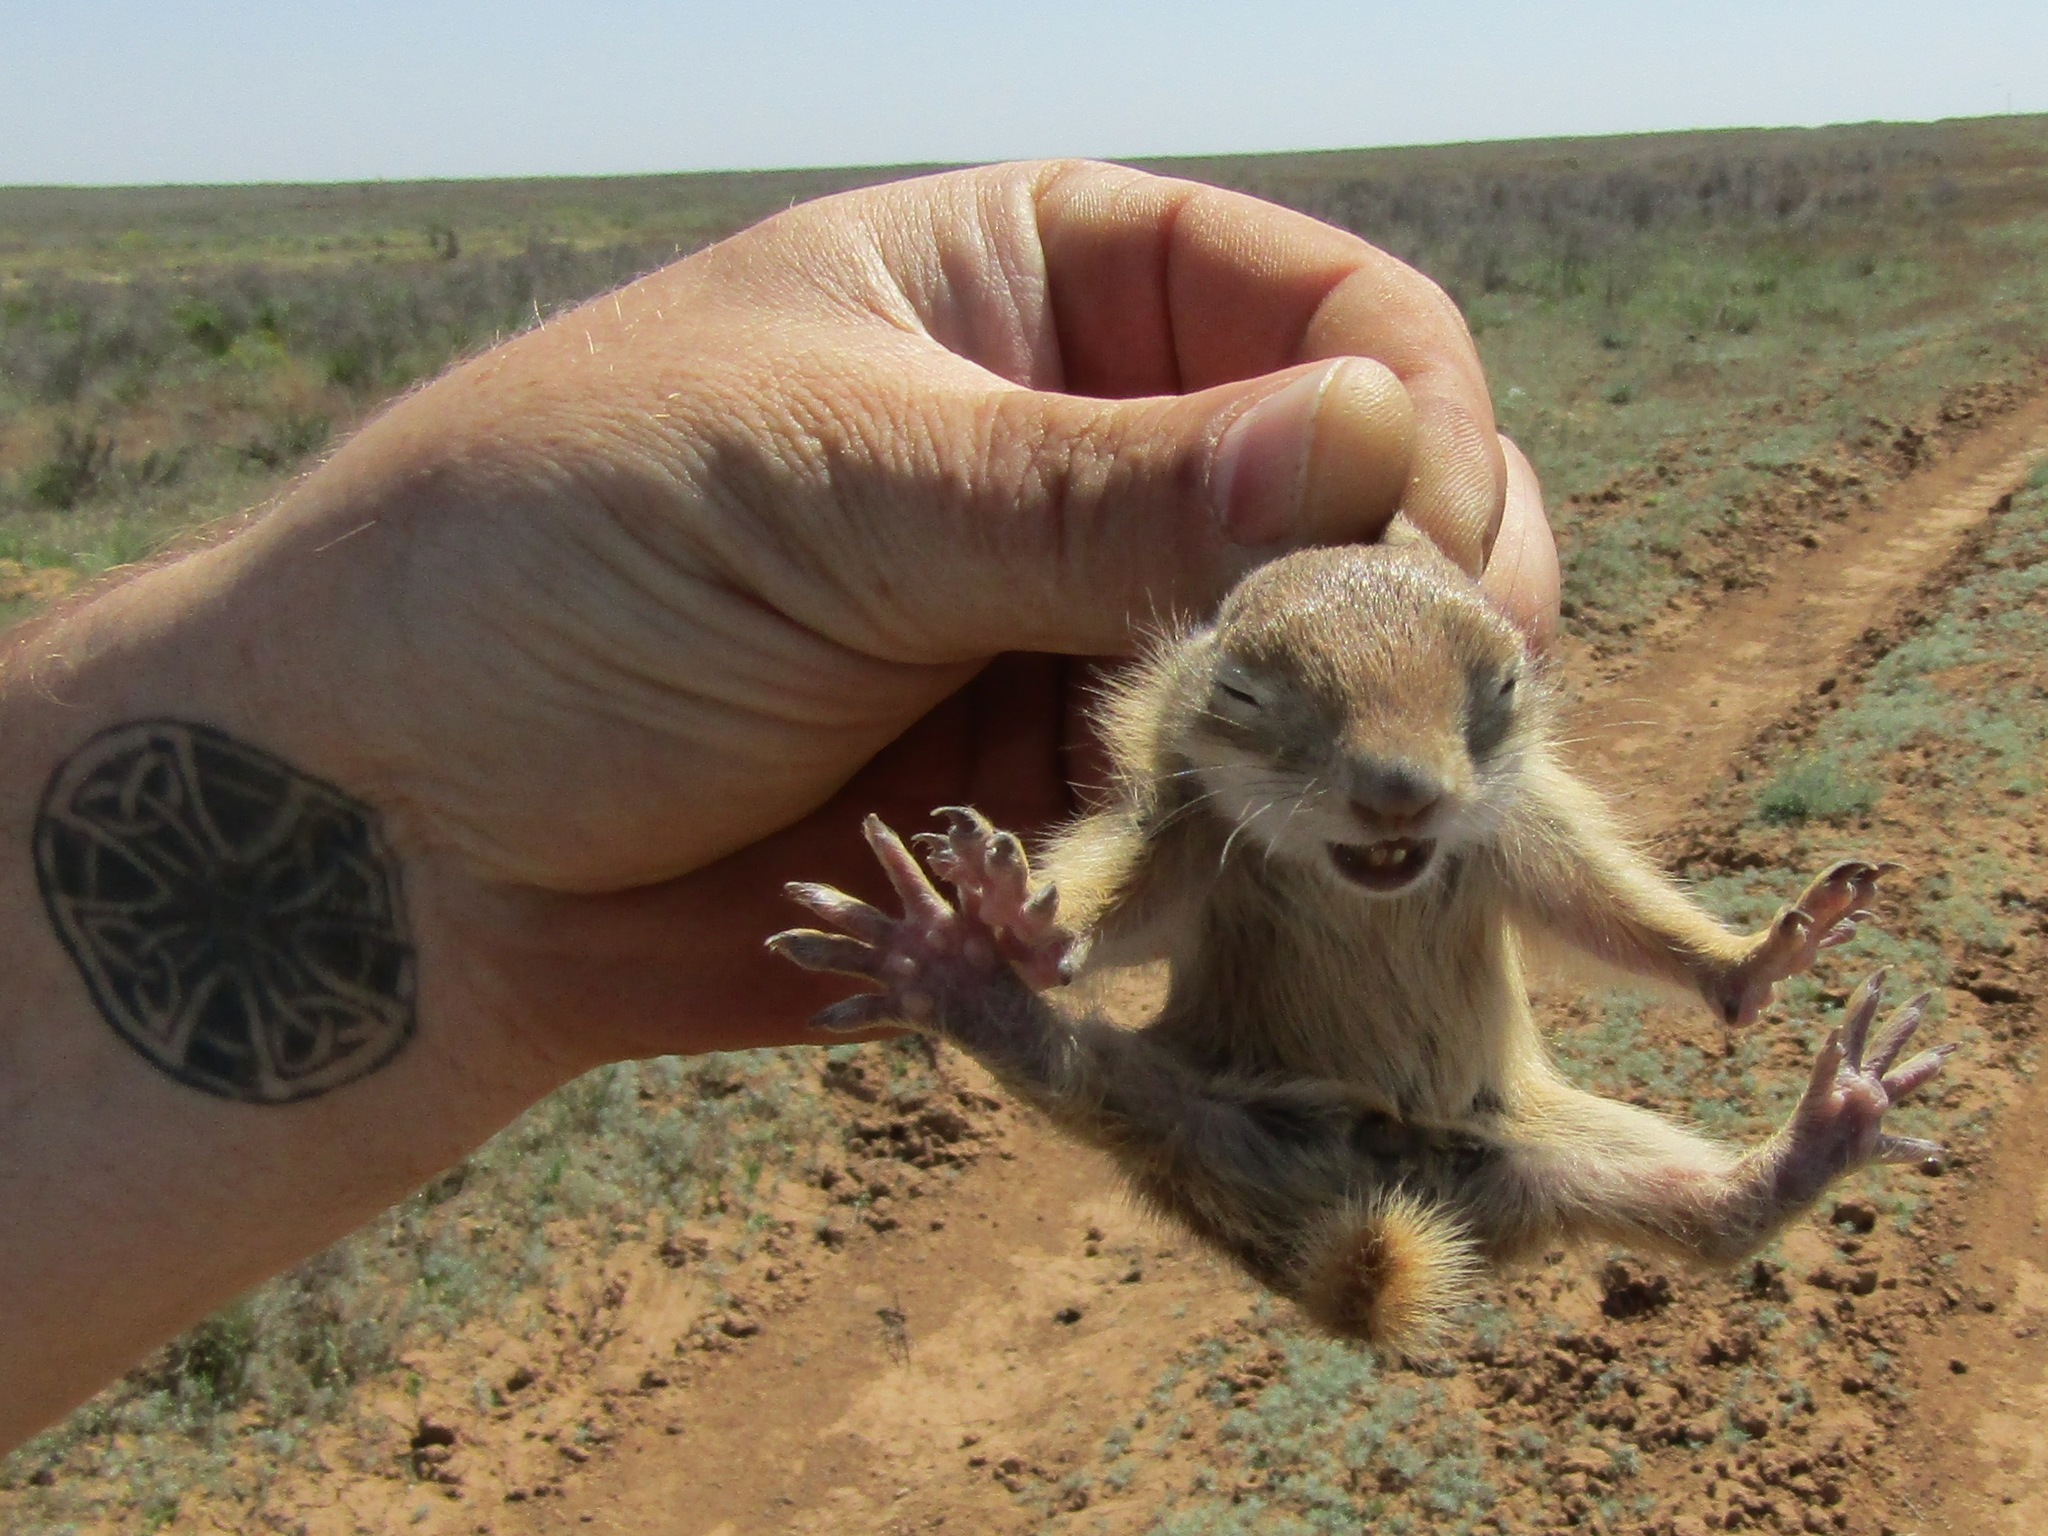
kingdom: Animalia
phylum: Chordata
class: Mammalia
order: Rodentia
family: Sciuridae
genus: Spermophilus
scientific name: Spermophilus pygmaeus
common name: Little ground squirrel
